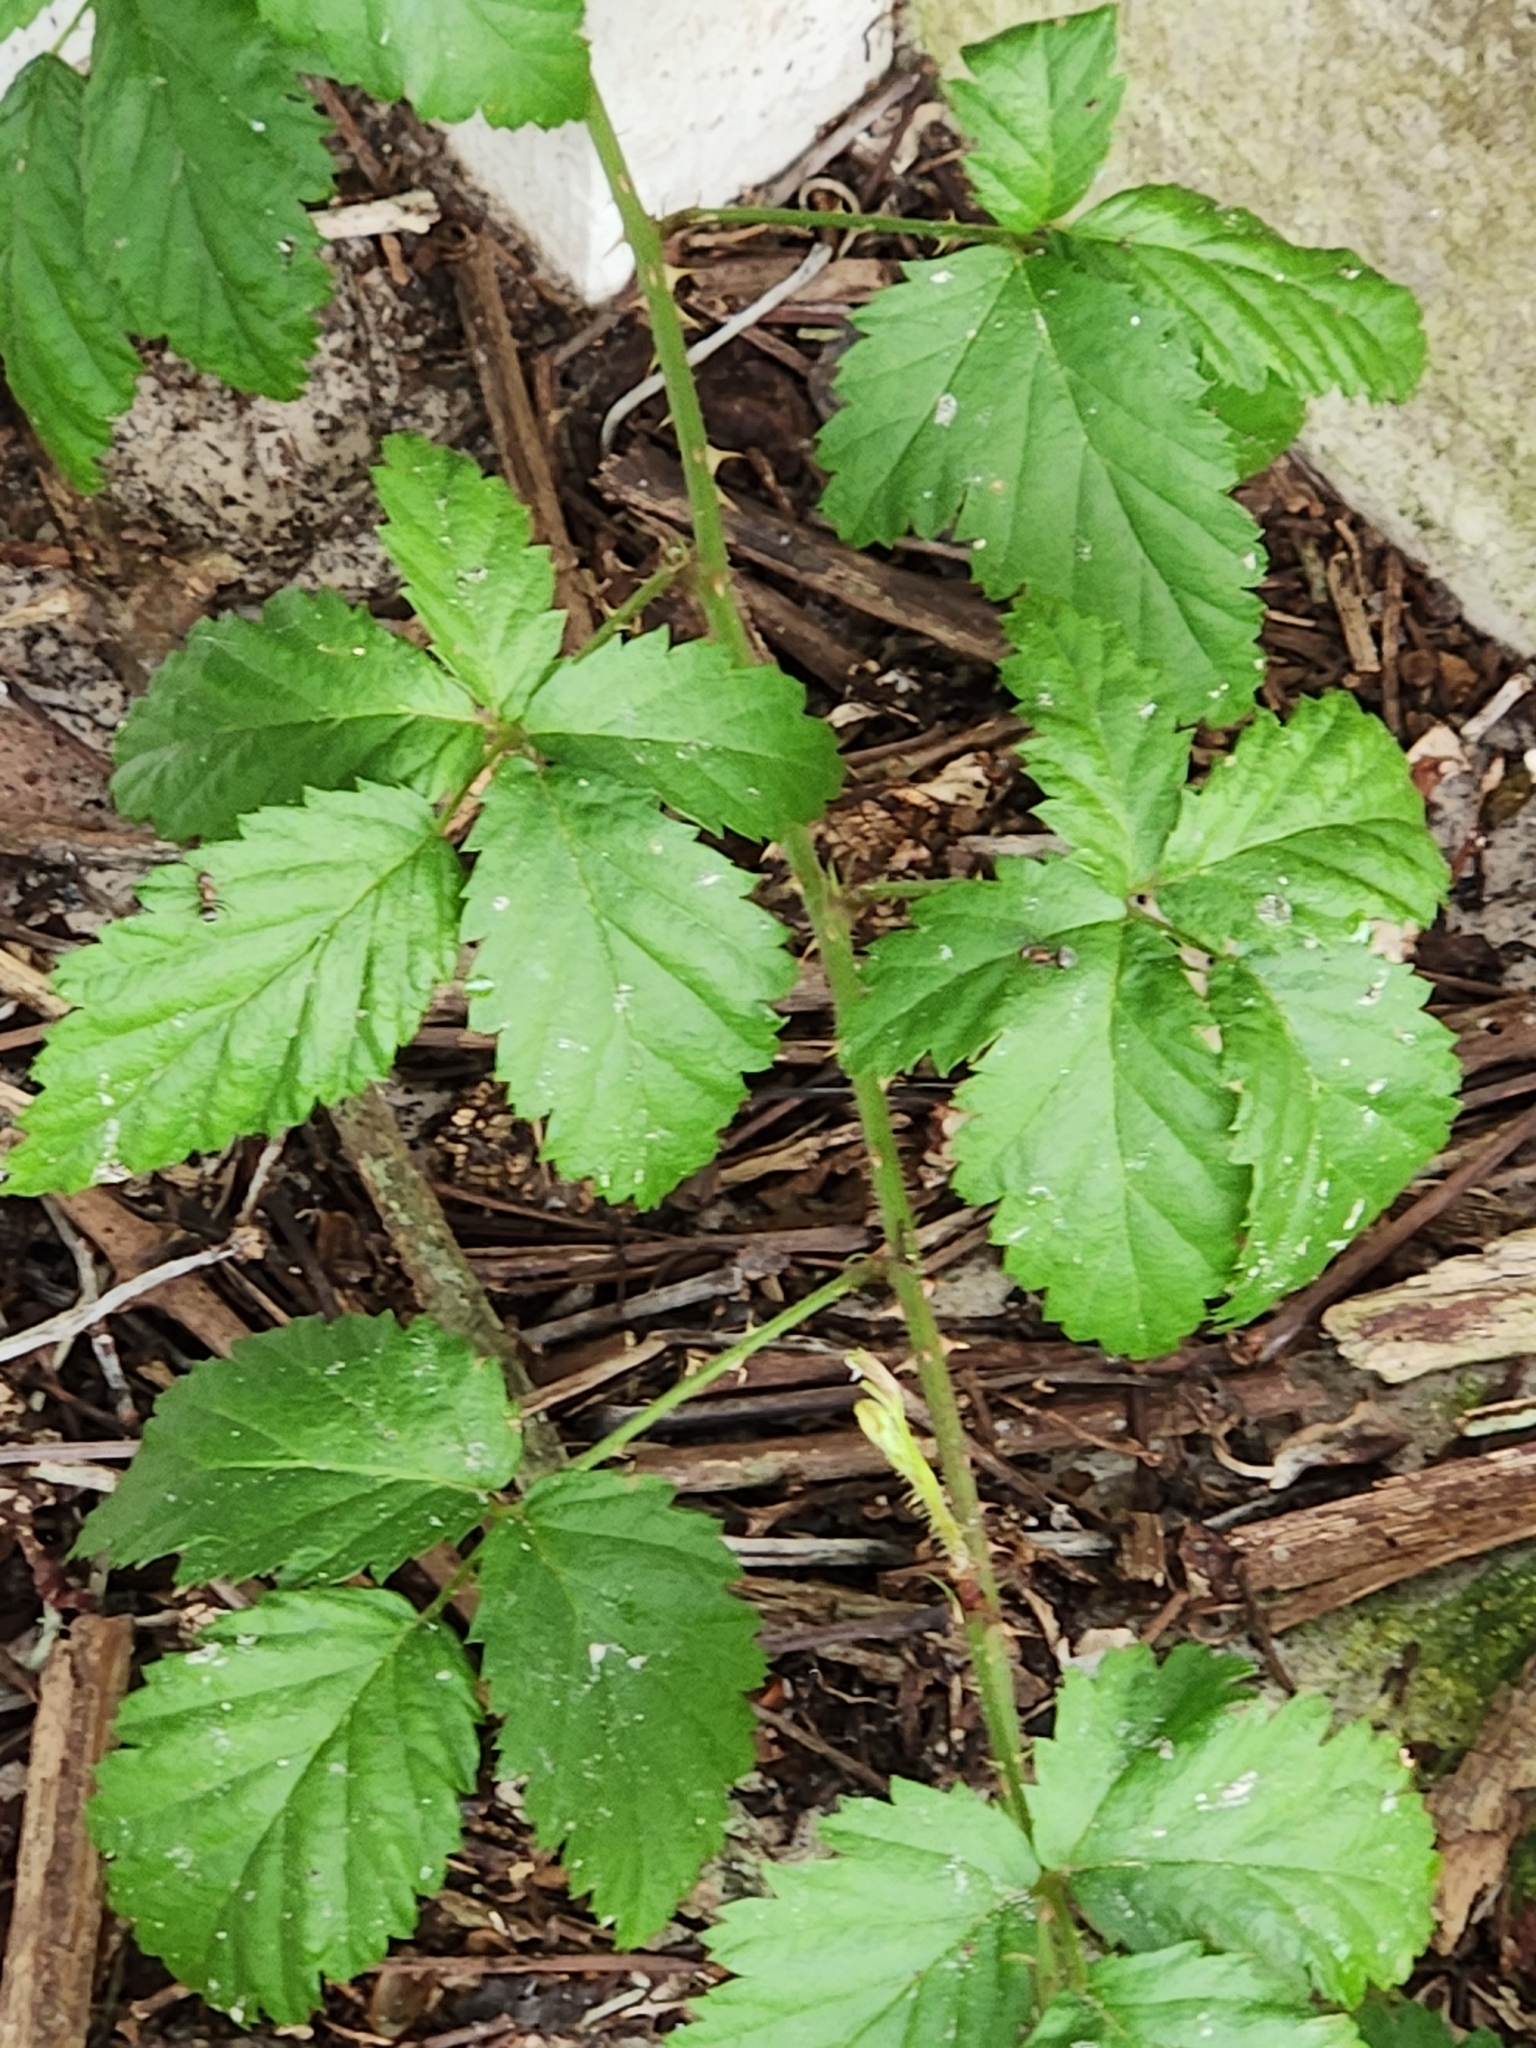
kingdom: Plantae
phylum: Tracheophyta
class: Magnoliopsida
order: Rosales
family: Rosaceae
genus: Rubus
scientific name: Rubus trivialis
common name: Southern dewberry
